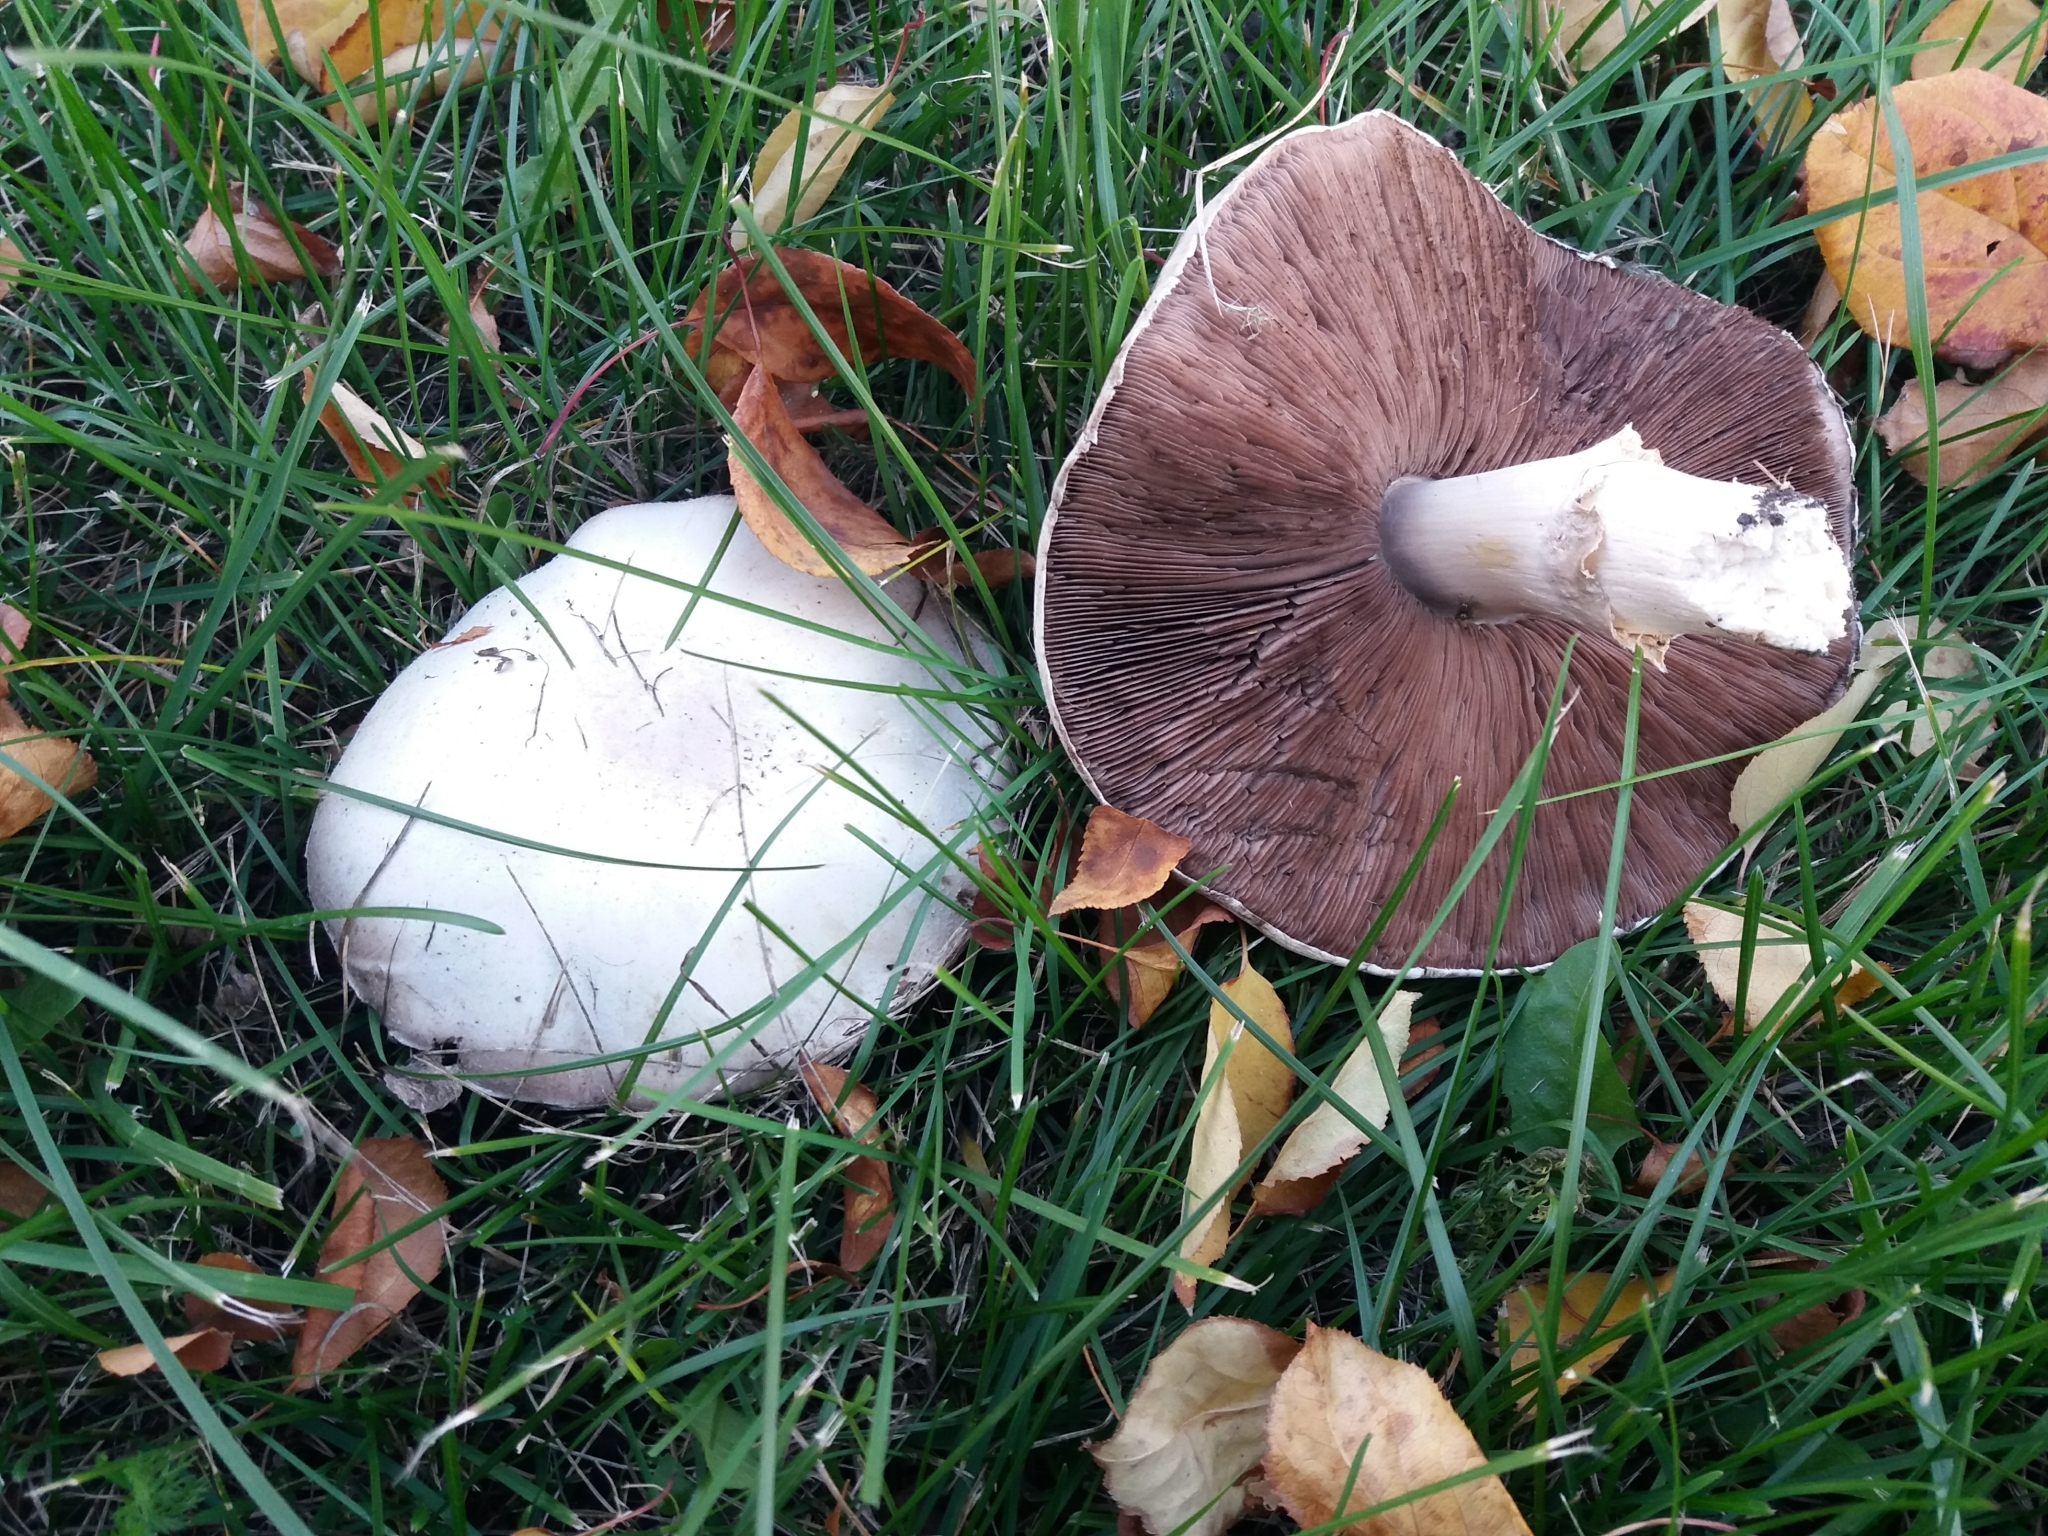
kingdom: Fungi
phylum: Basidiomycota
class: Agaricomycetes
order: Agaricales
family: Agaricaceae
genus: Agaricus
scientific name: Agaricus campestris
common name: Field mushroom
